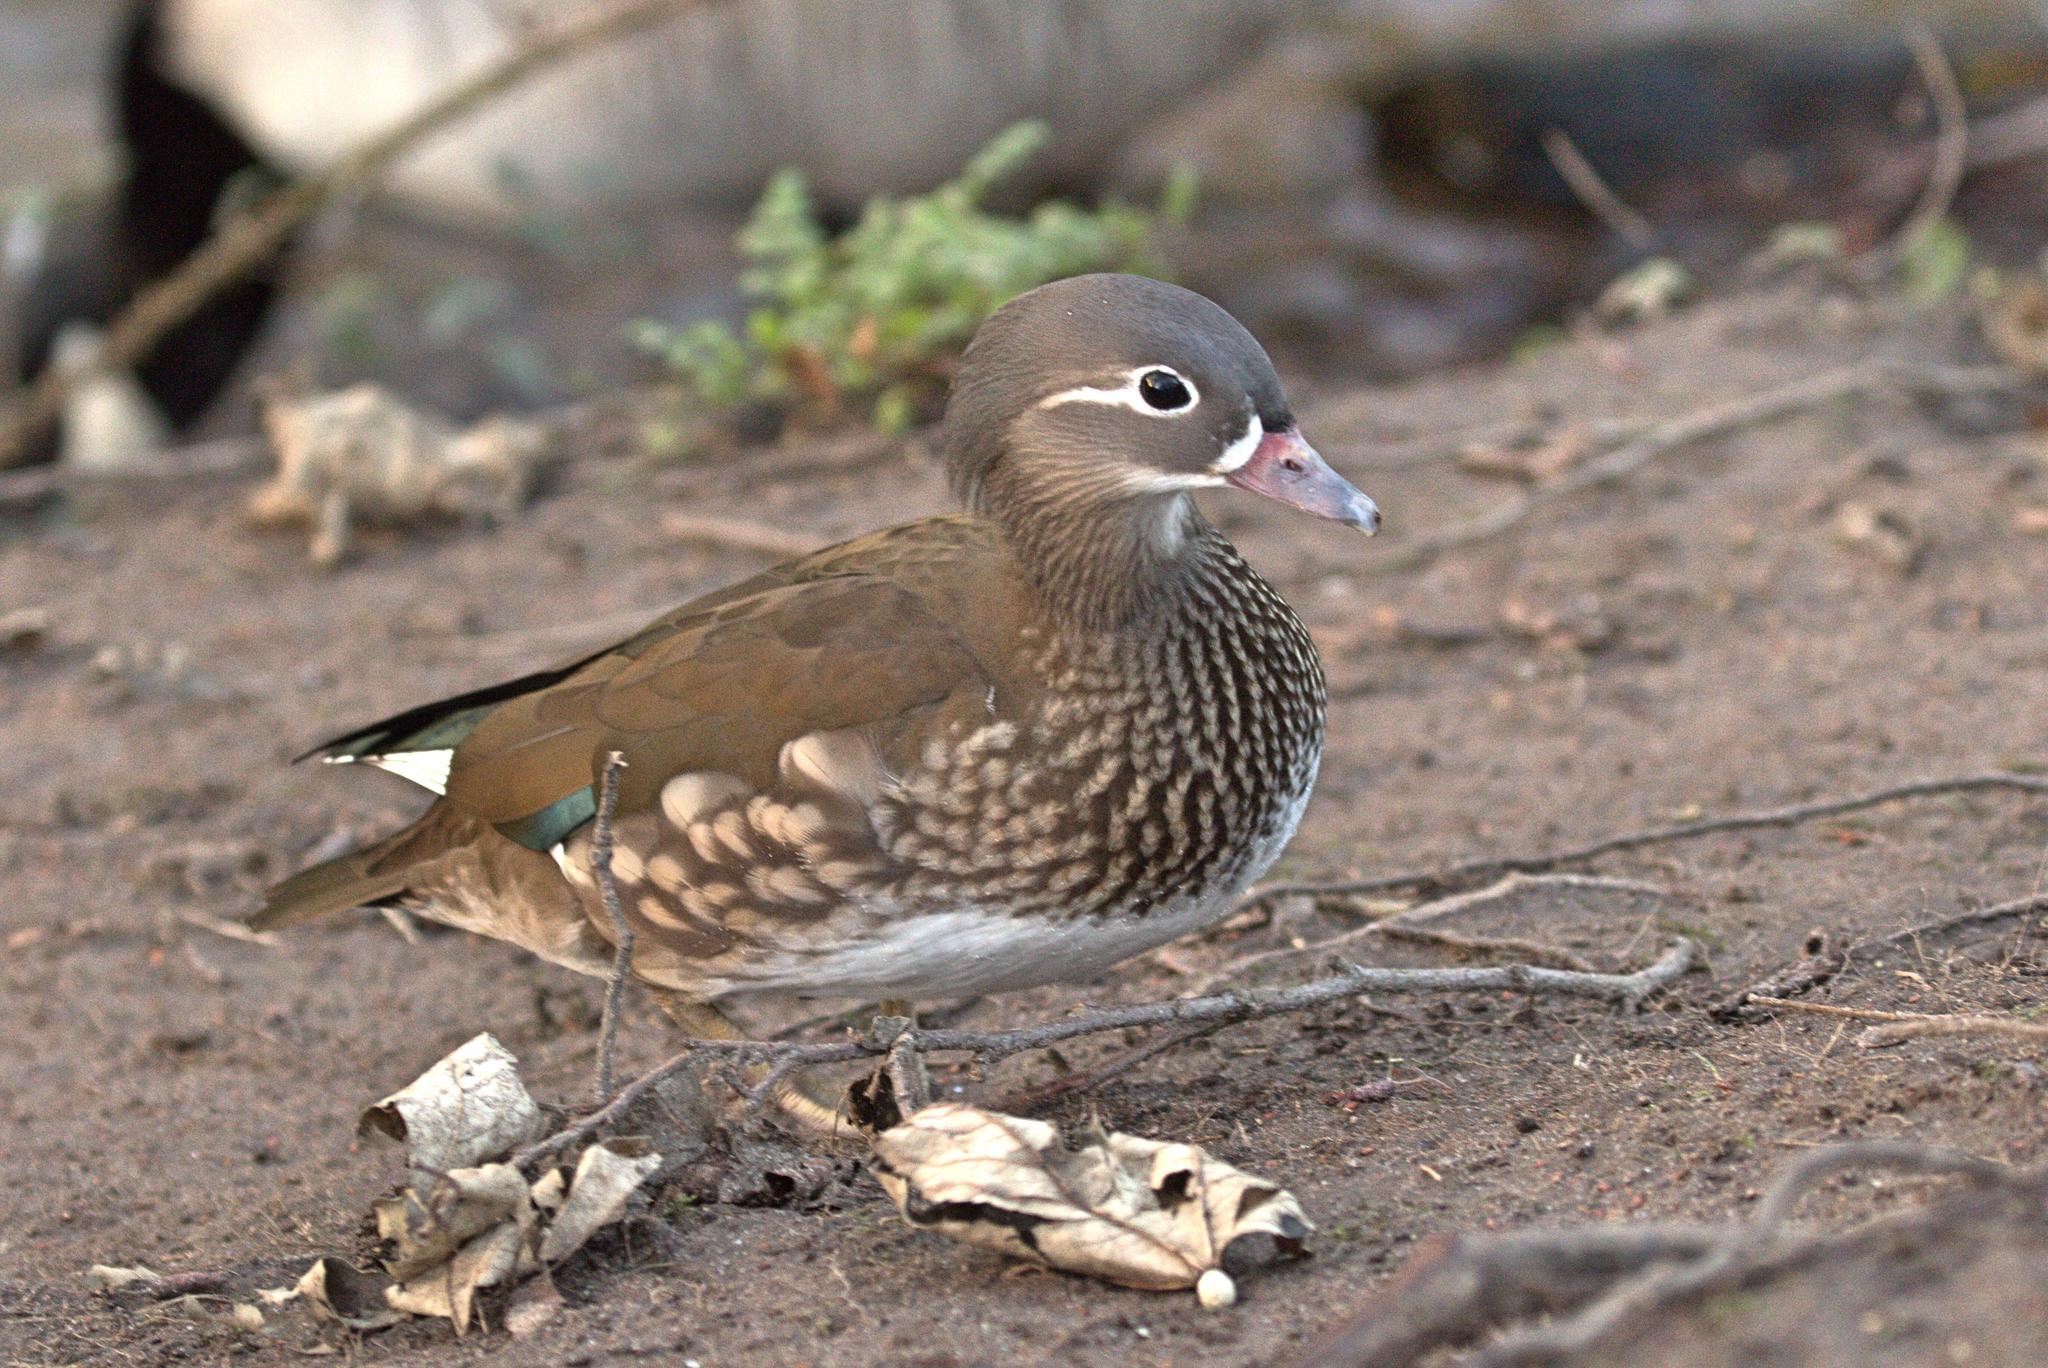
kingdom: Animalia
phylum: Chordata
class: Aves
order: Anseriformes
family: Anatidae
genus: Aix
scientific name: Aix galericulata
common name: Mandarin duck
